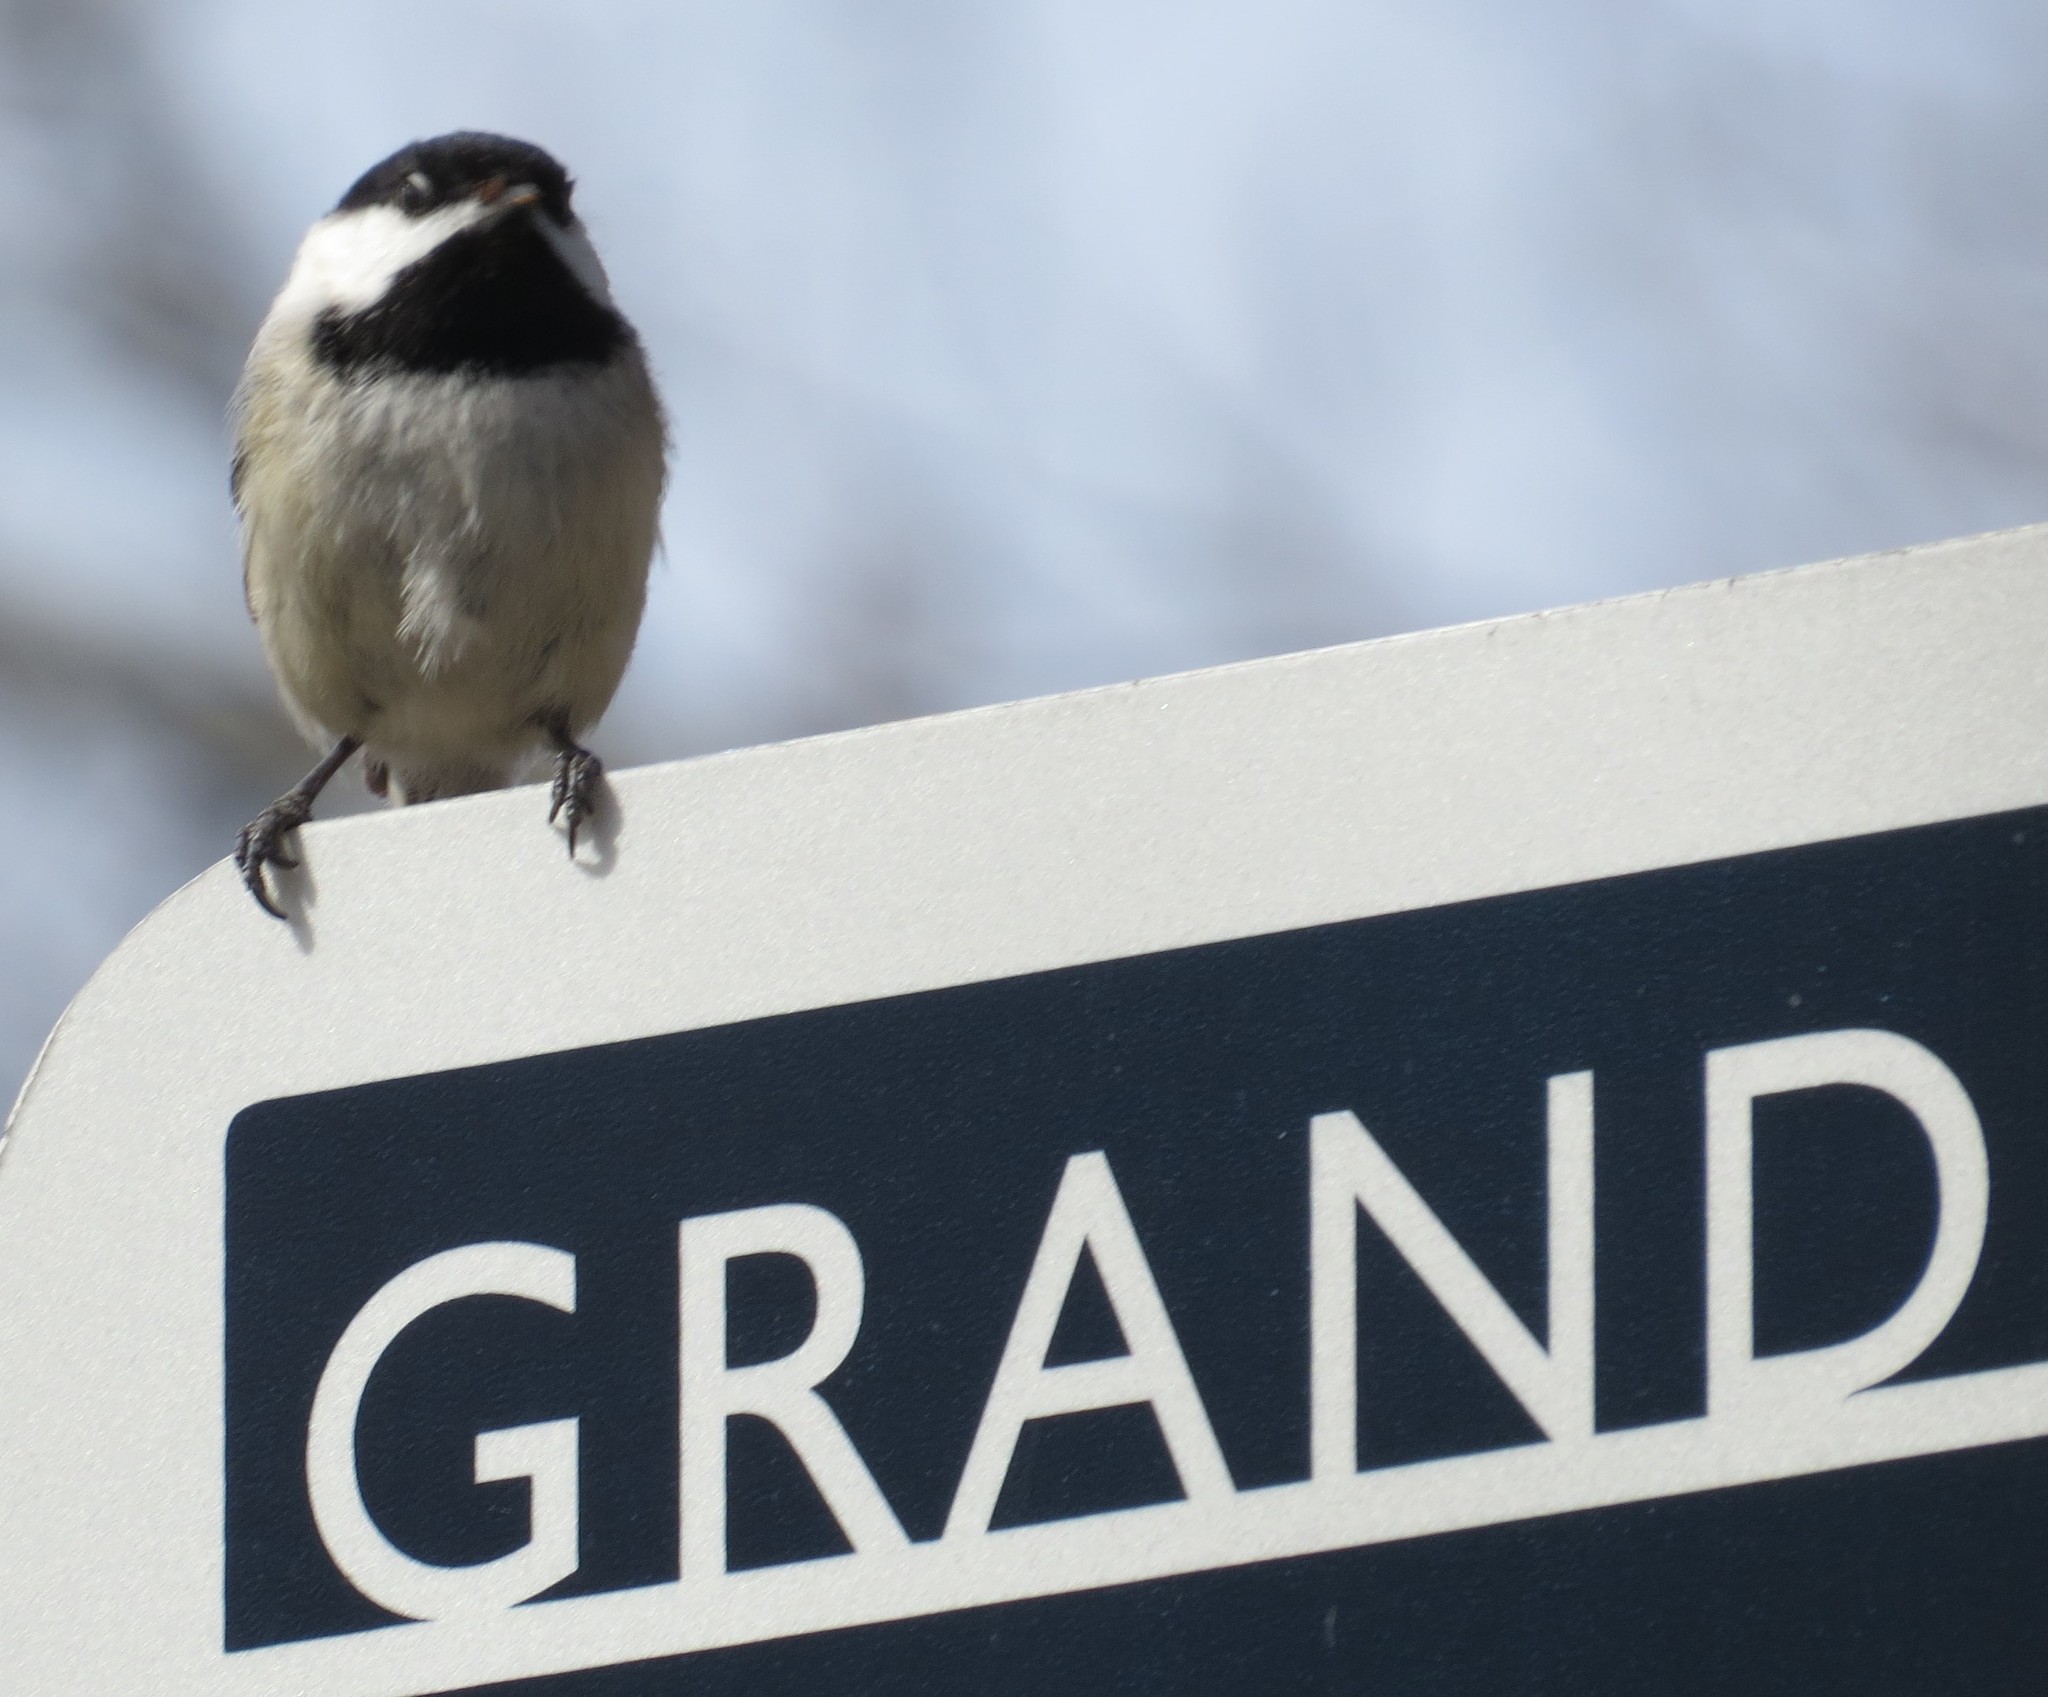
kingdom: Animalia
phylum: Chordata
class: Aves
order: Passeriformes
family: Paridae
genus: Poecile
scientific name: Poecile atricapillus
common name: Black-capped chickadee
